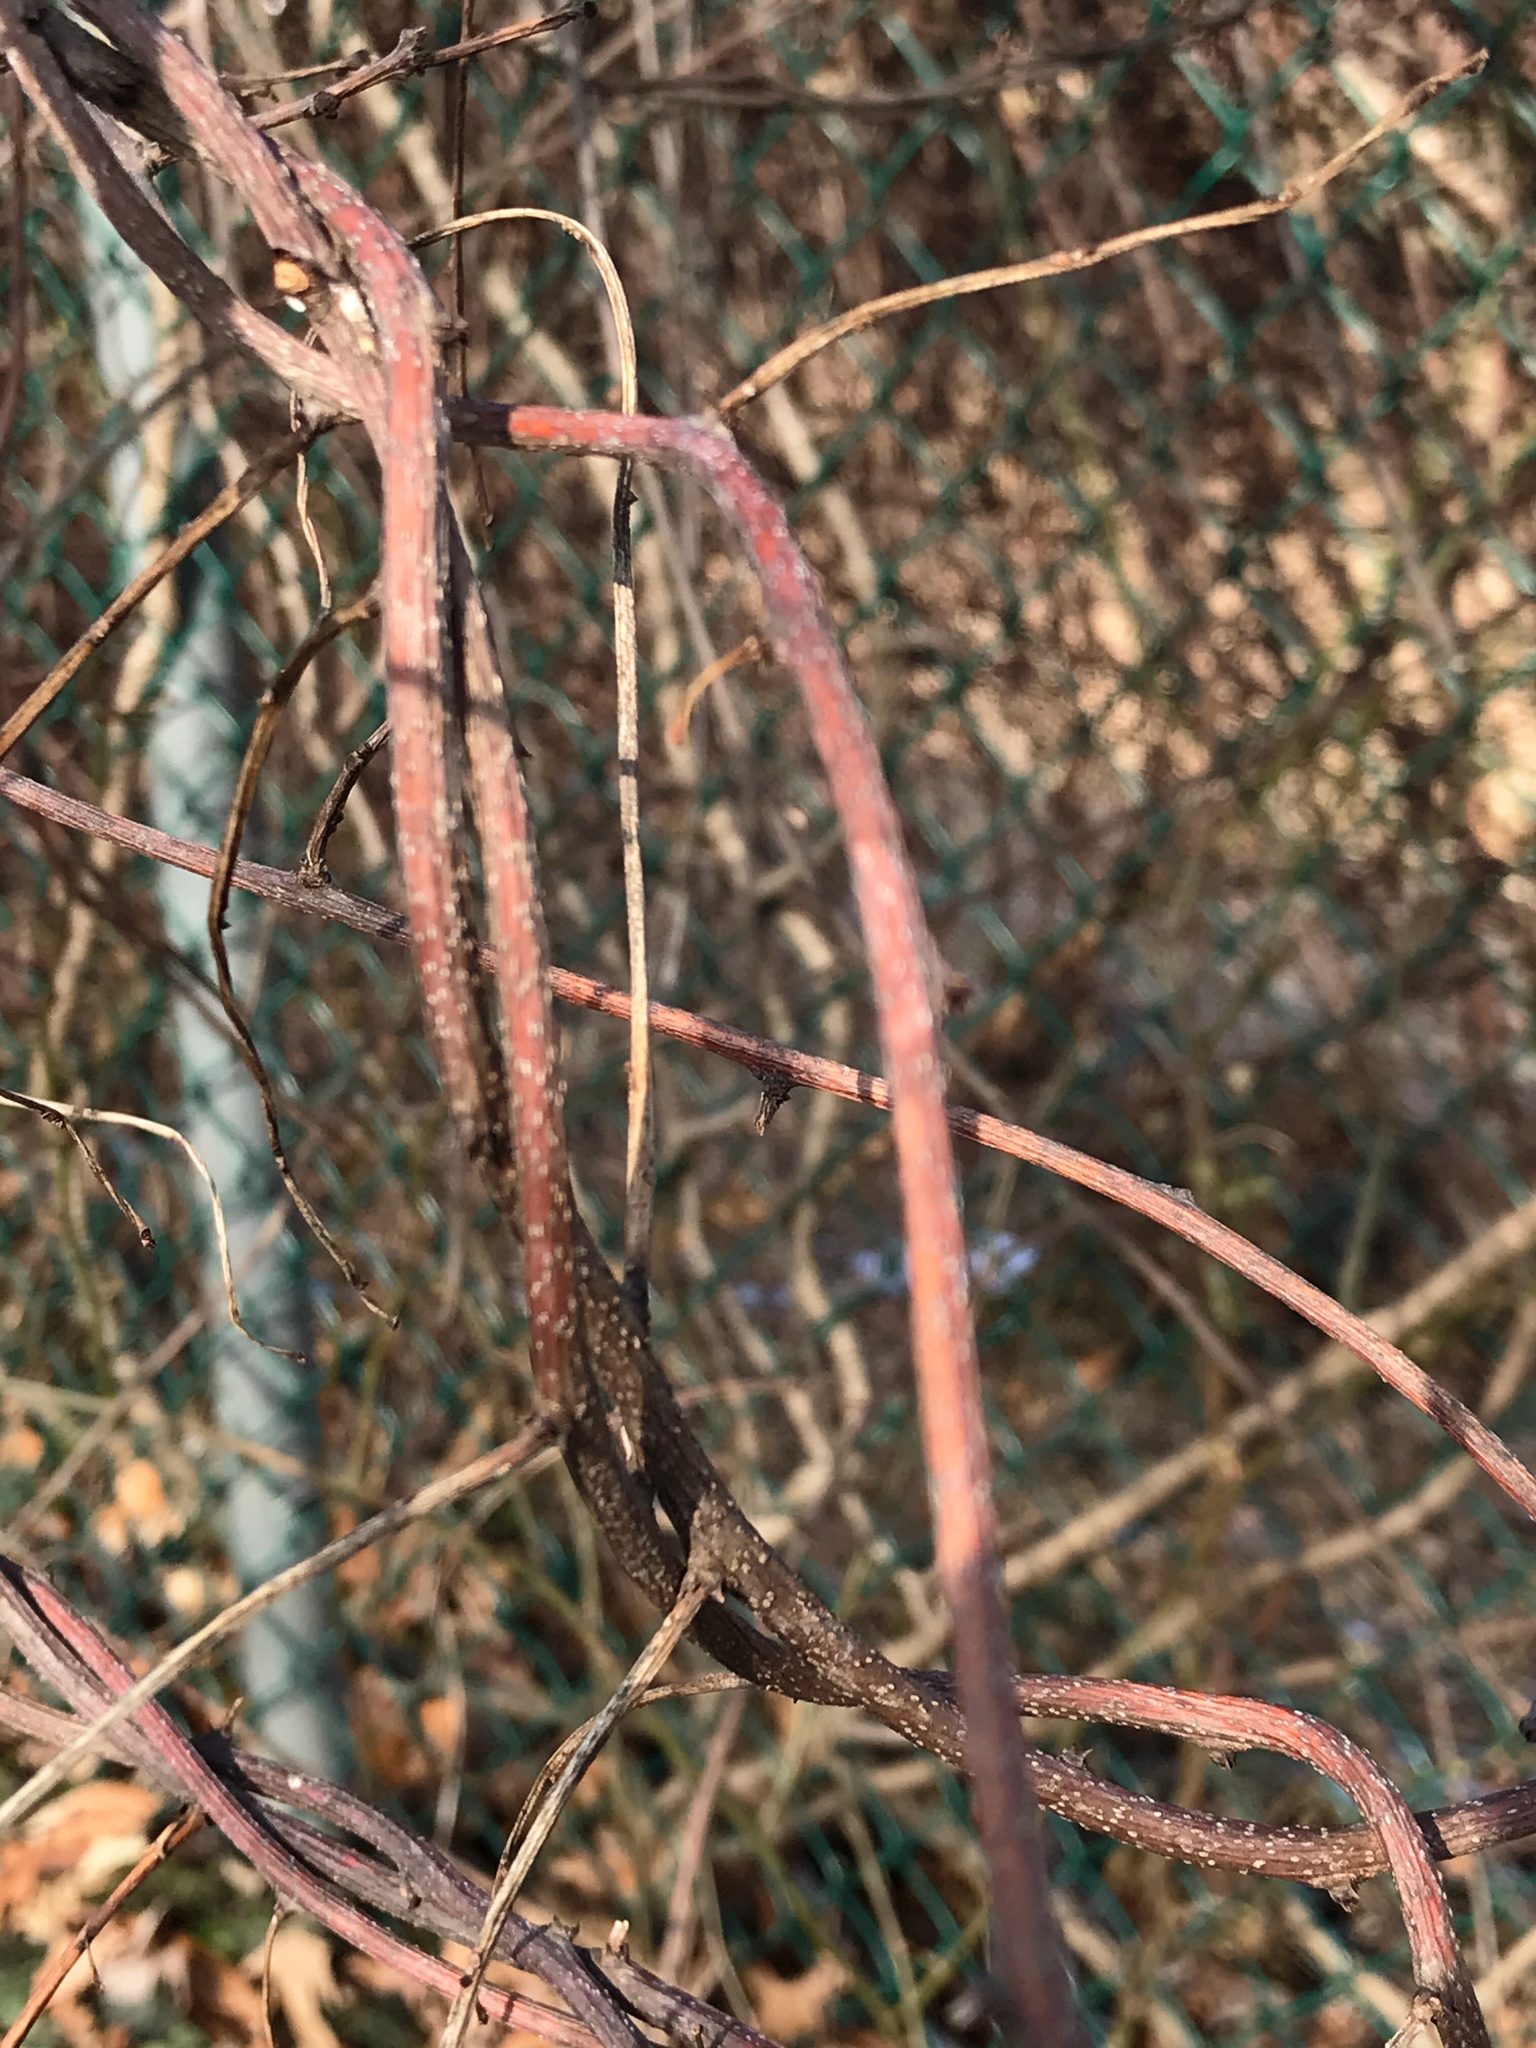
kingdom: Plantae
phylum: Tracheophyta
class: Magnoliopsida
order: Celastrales
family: Celastraceae
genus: Celastrus
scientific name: Celastrus orbiculatus
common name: Oriental bittersweet
